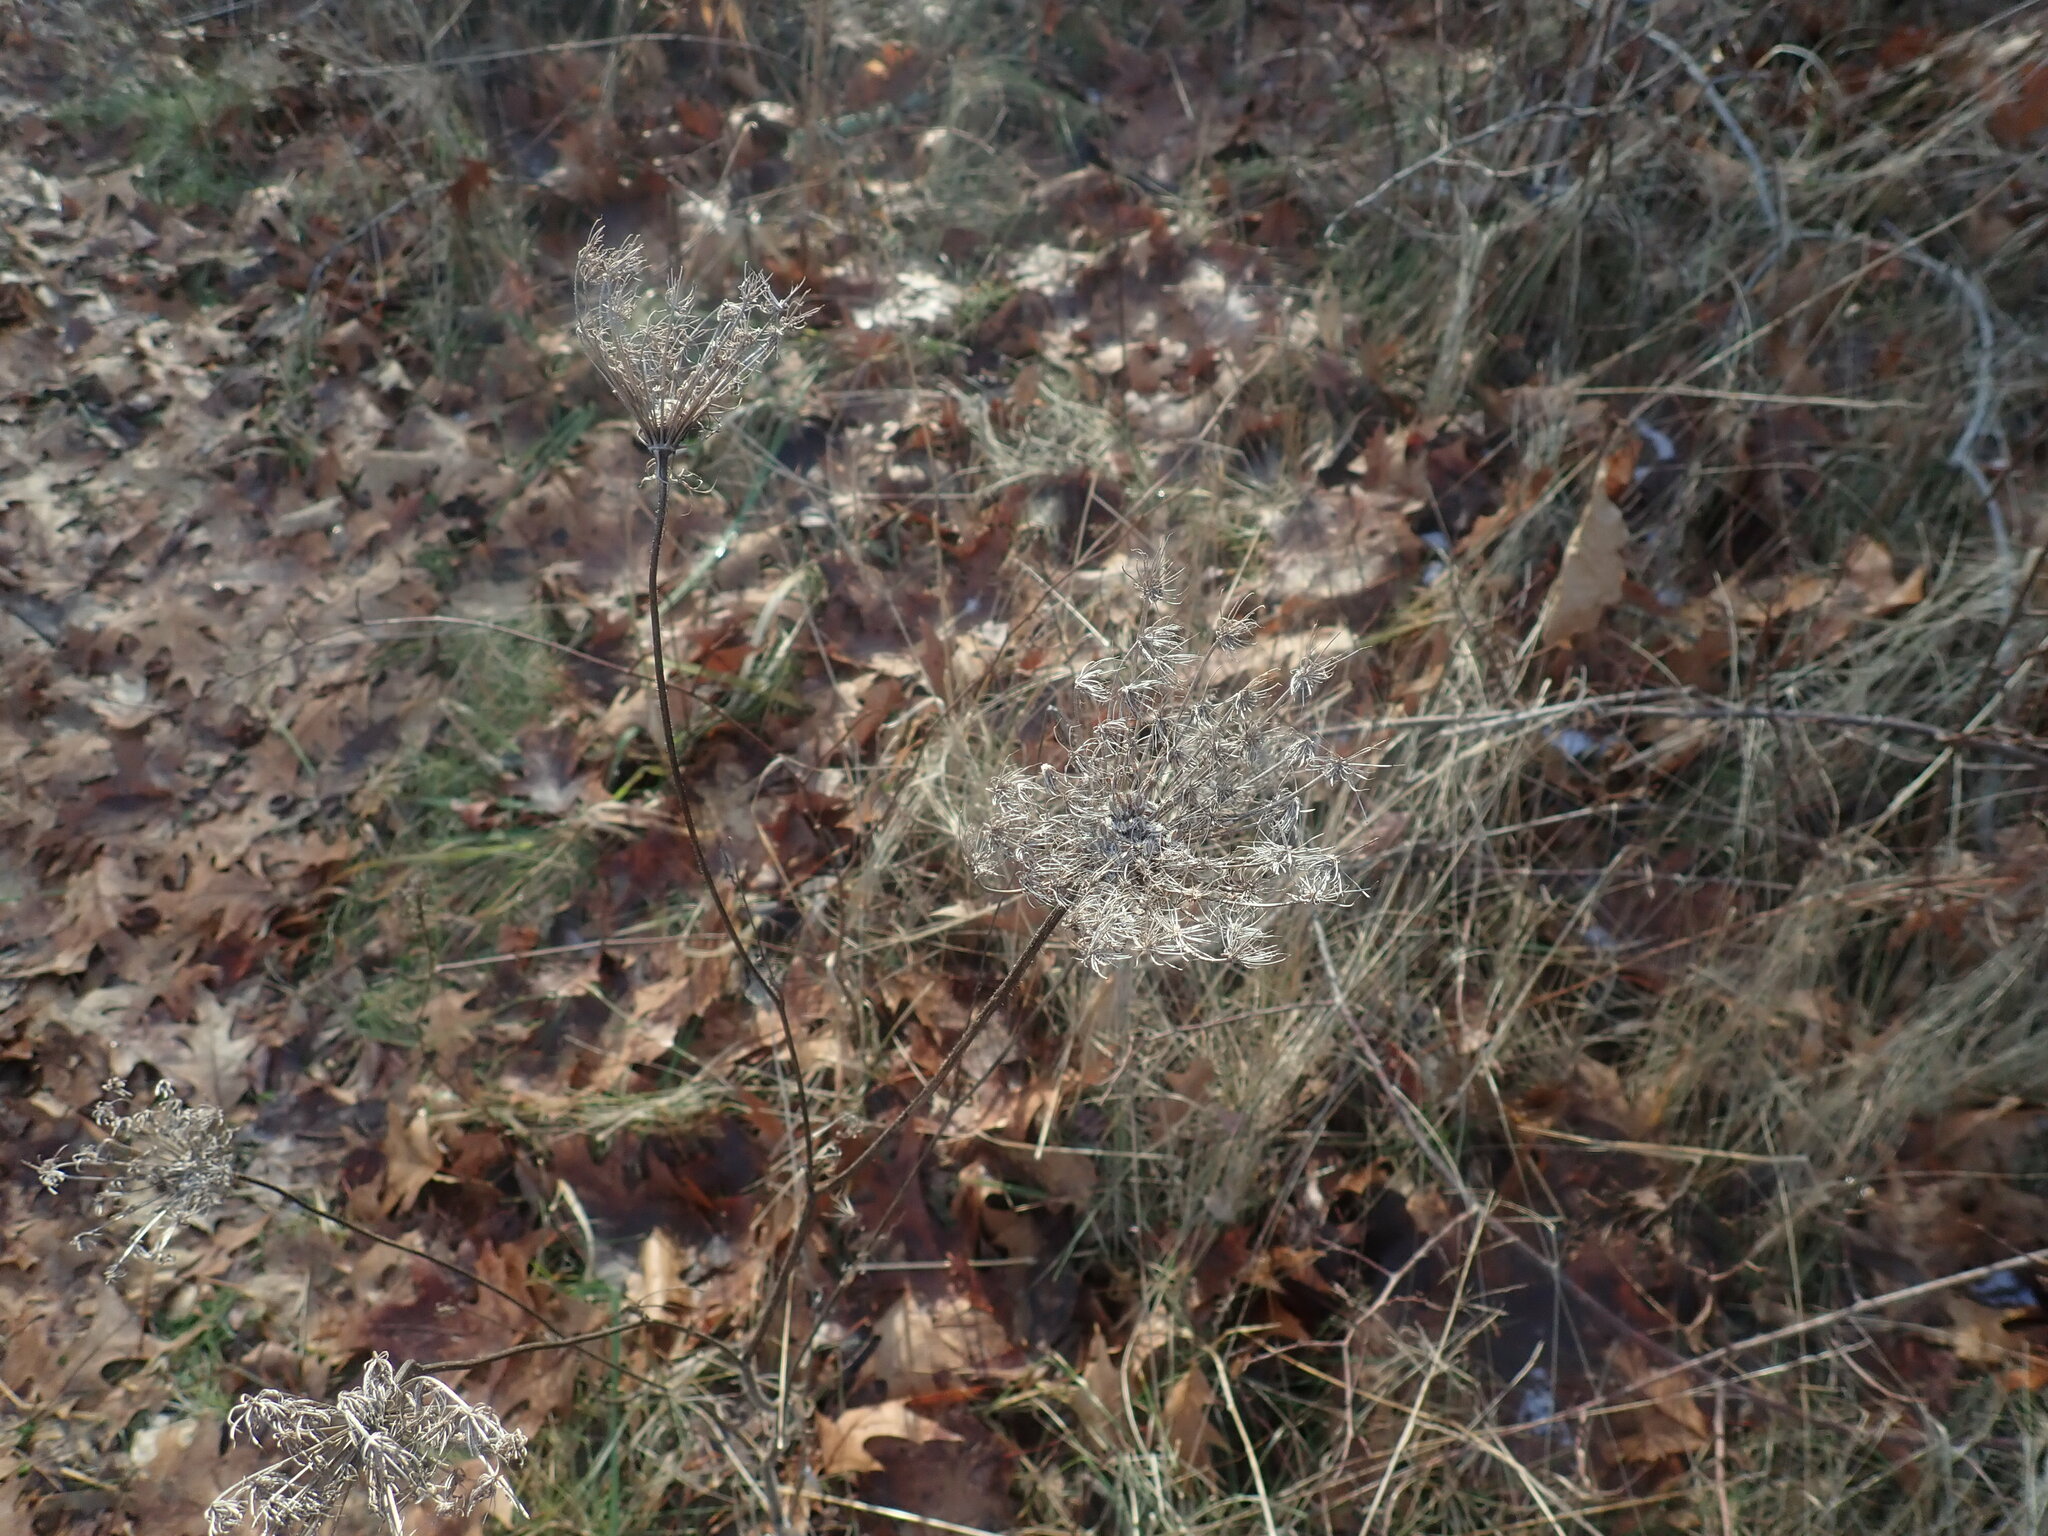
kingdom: Plantae
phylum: Tracheophyta
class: Magnoliopsida
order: Apiales
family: Apiaceae
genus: Daucus
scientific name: Daucus carota
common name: Wild carrot
